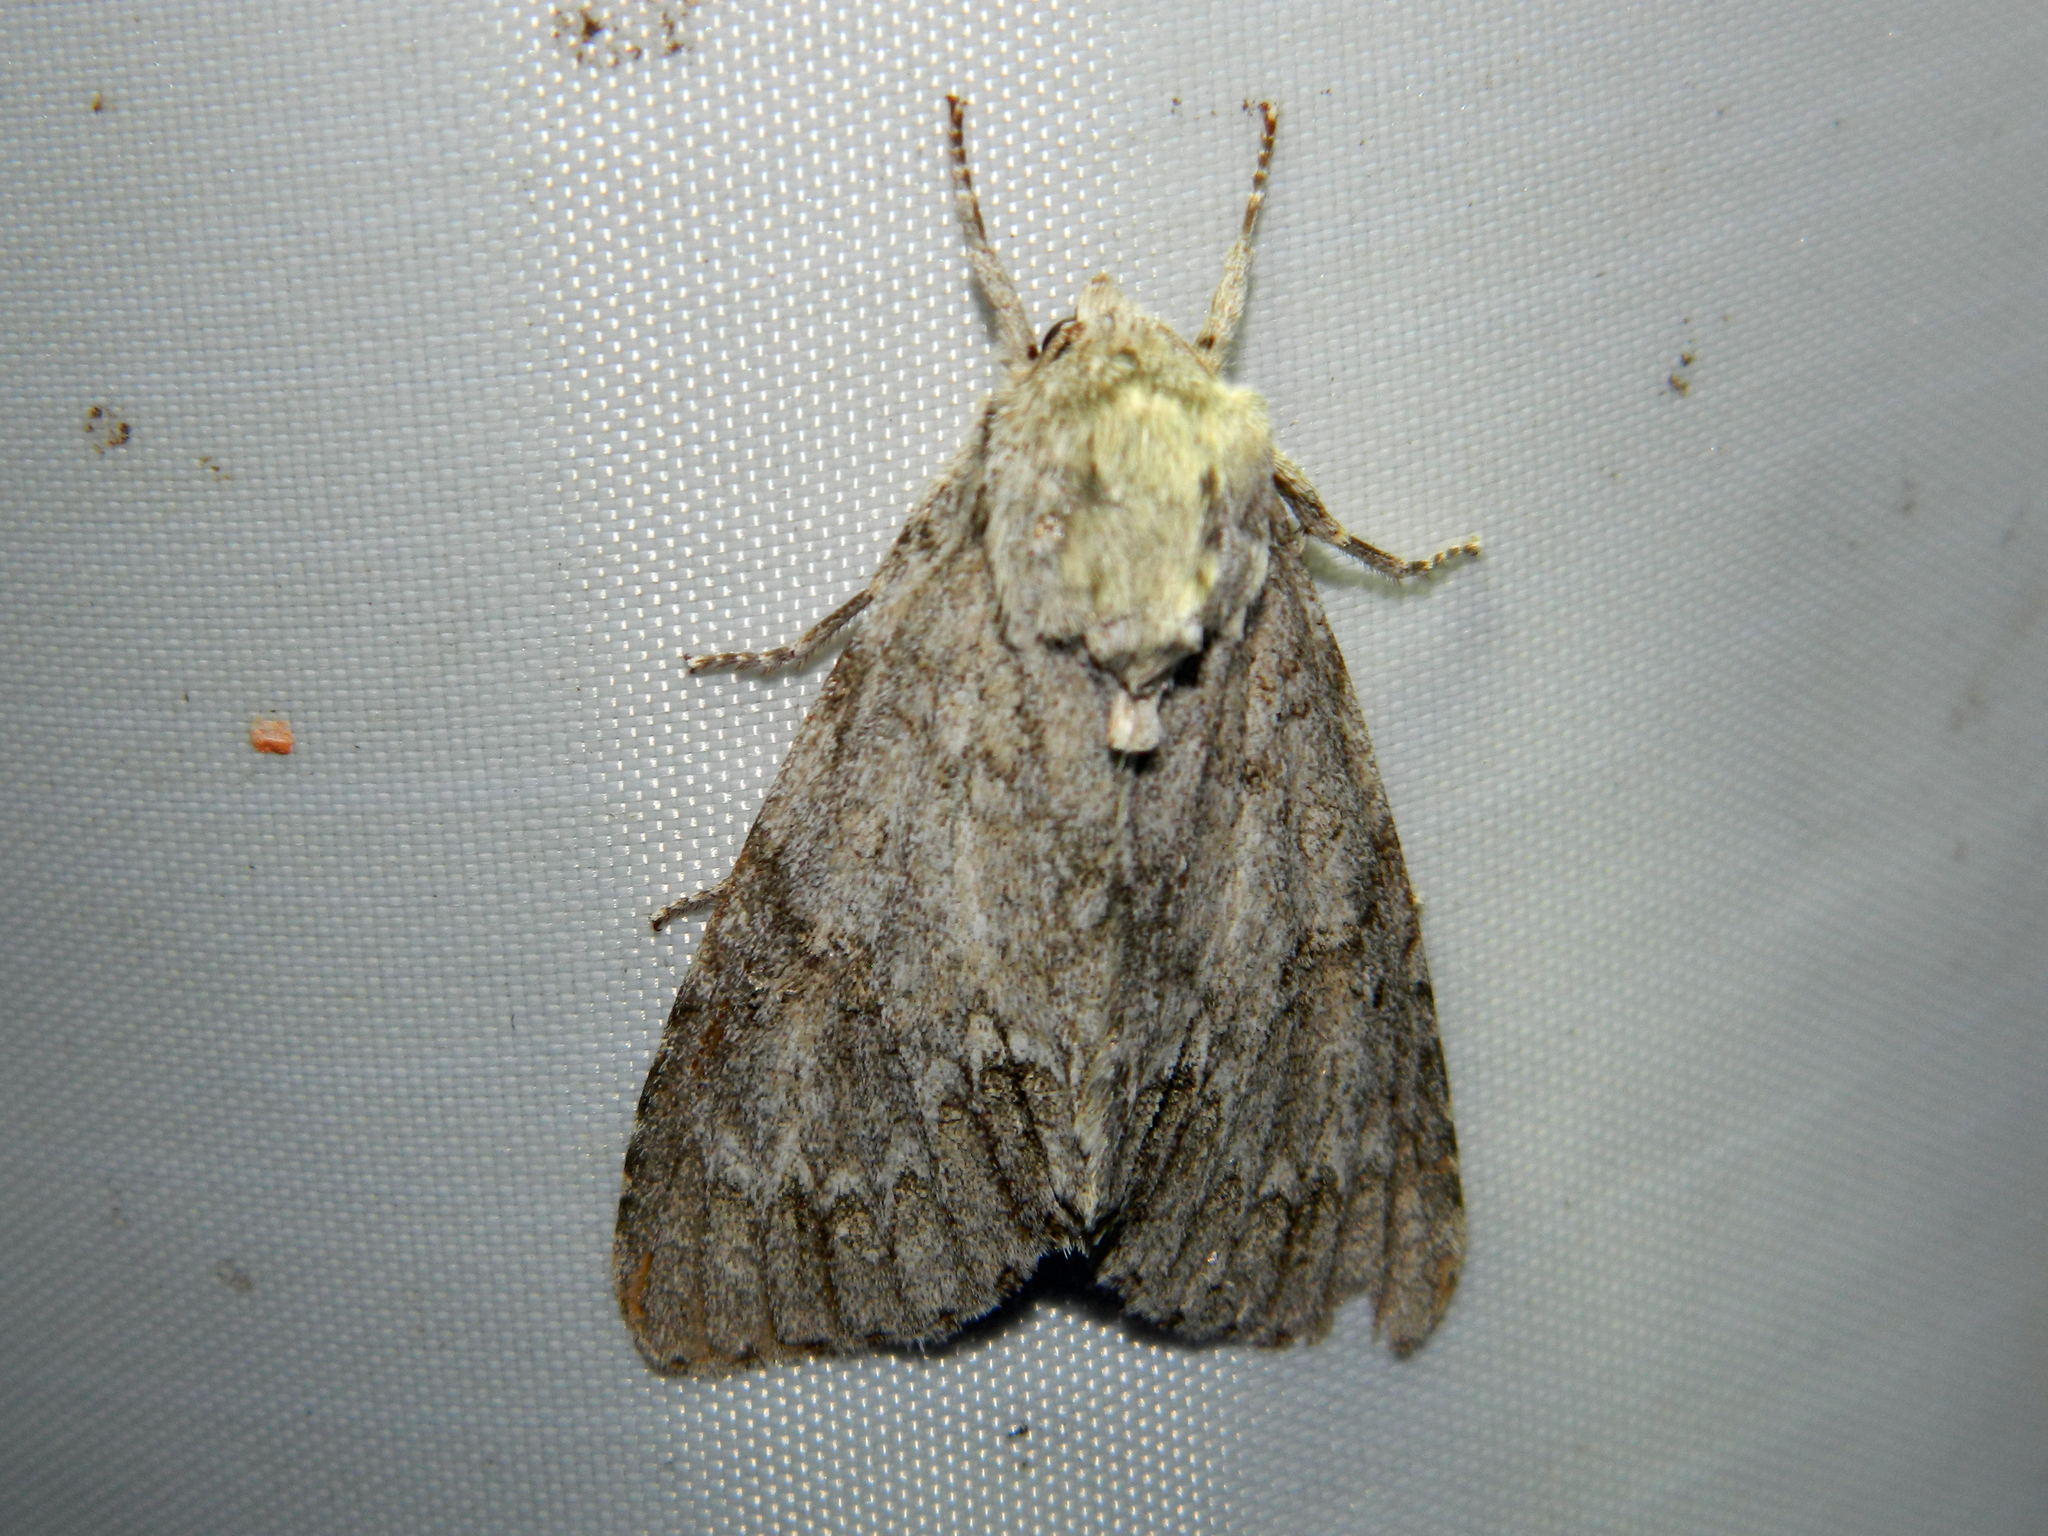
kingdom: Animalia
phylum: Arthropoda
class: Insecta
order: Lepidoptera
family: Noctuidae
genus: Acronicta
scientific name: Acronicta americana
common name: American dagger
